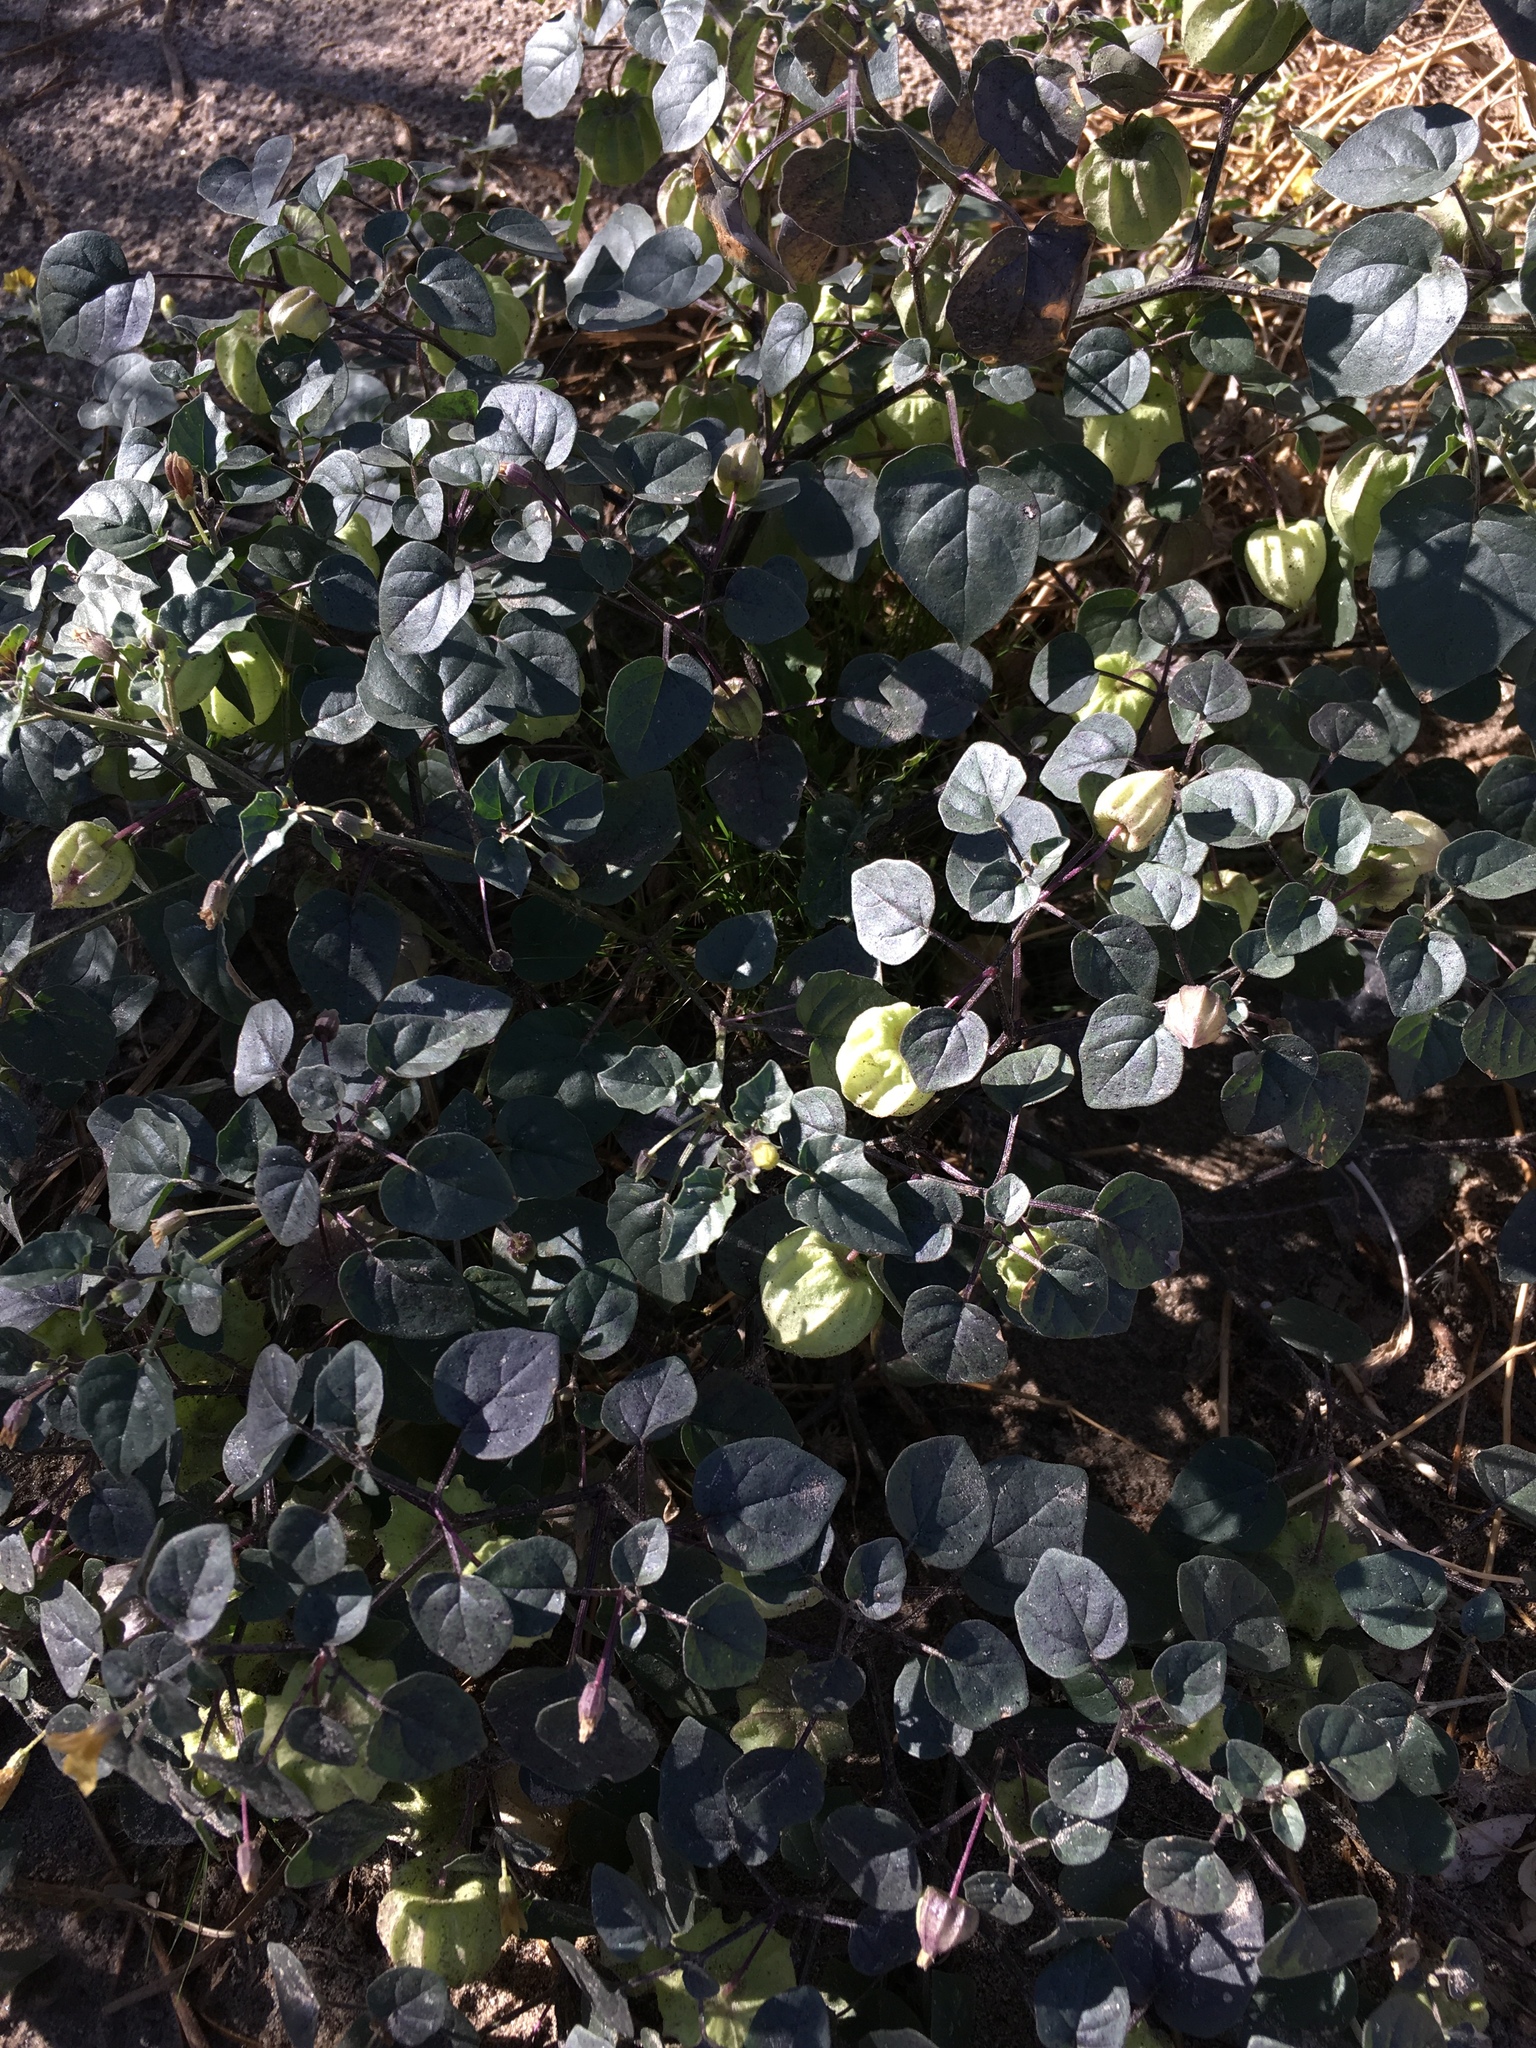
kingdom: Plantae
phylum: Tracheophyta
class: Magnoliopsida
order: Solanales
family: Solanaceae
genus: Physalis
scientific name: Physalis crassifolia
